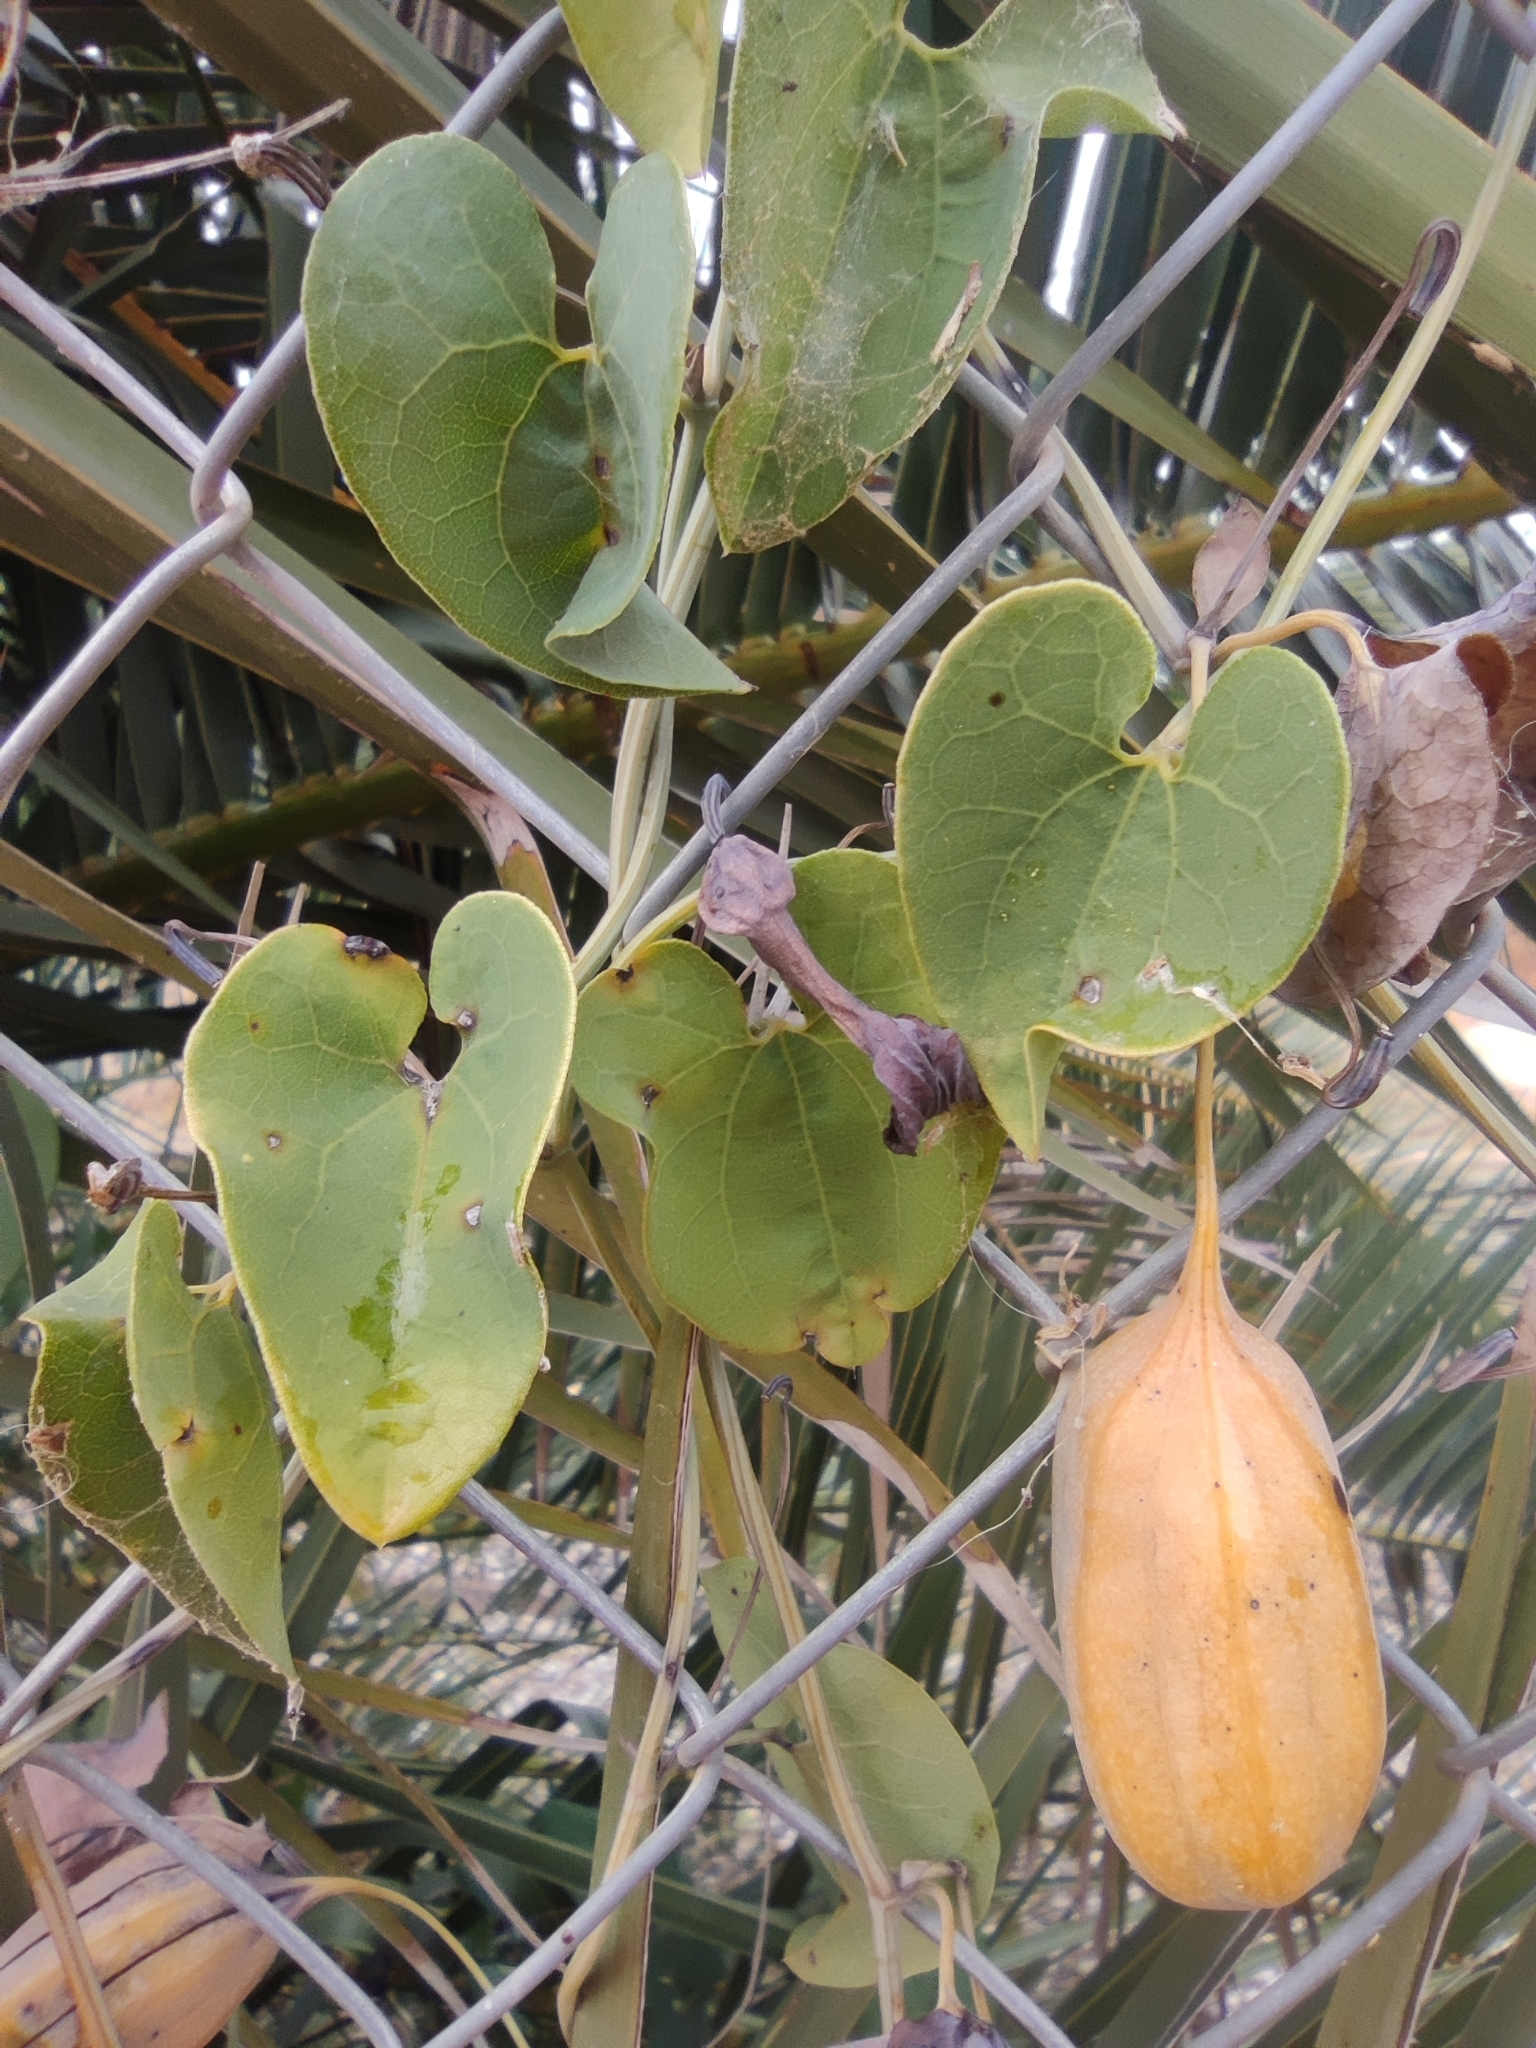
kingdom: Plantae
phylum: Tracheophyta
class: Magnoliopsida
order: Piperales
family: Aristolochiaceae
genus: Aristolochia
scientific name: Aristolochia baetica
